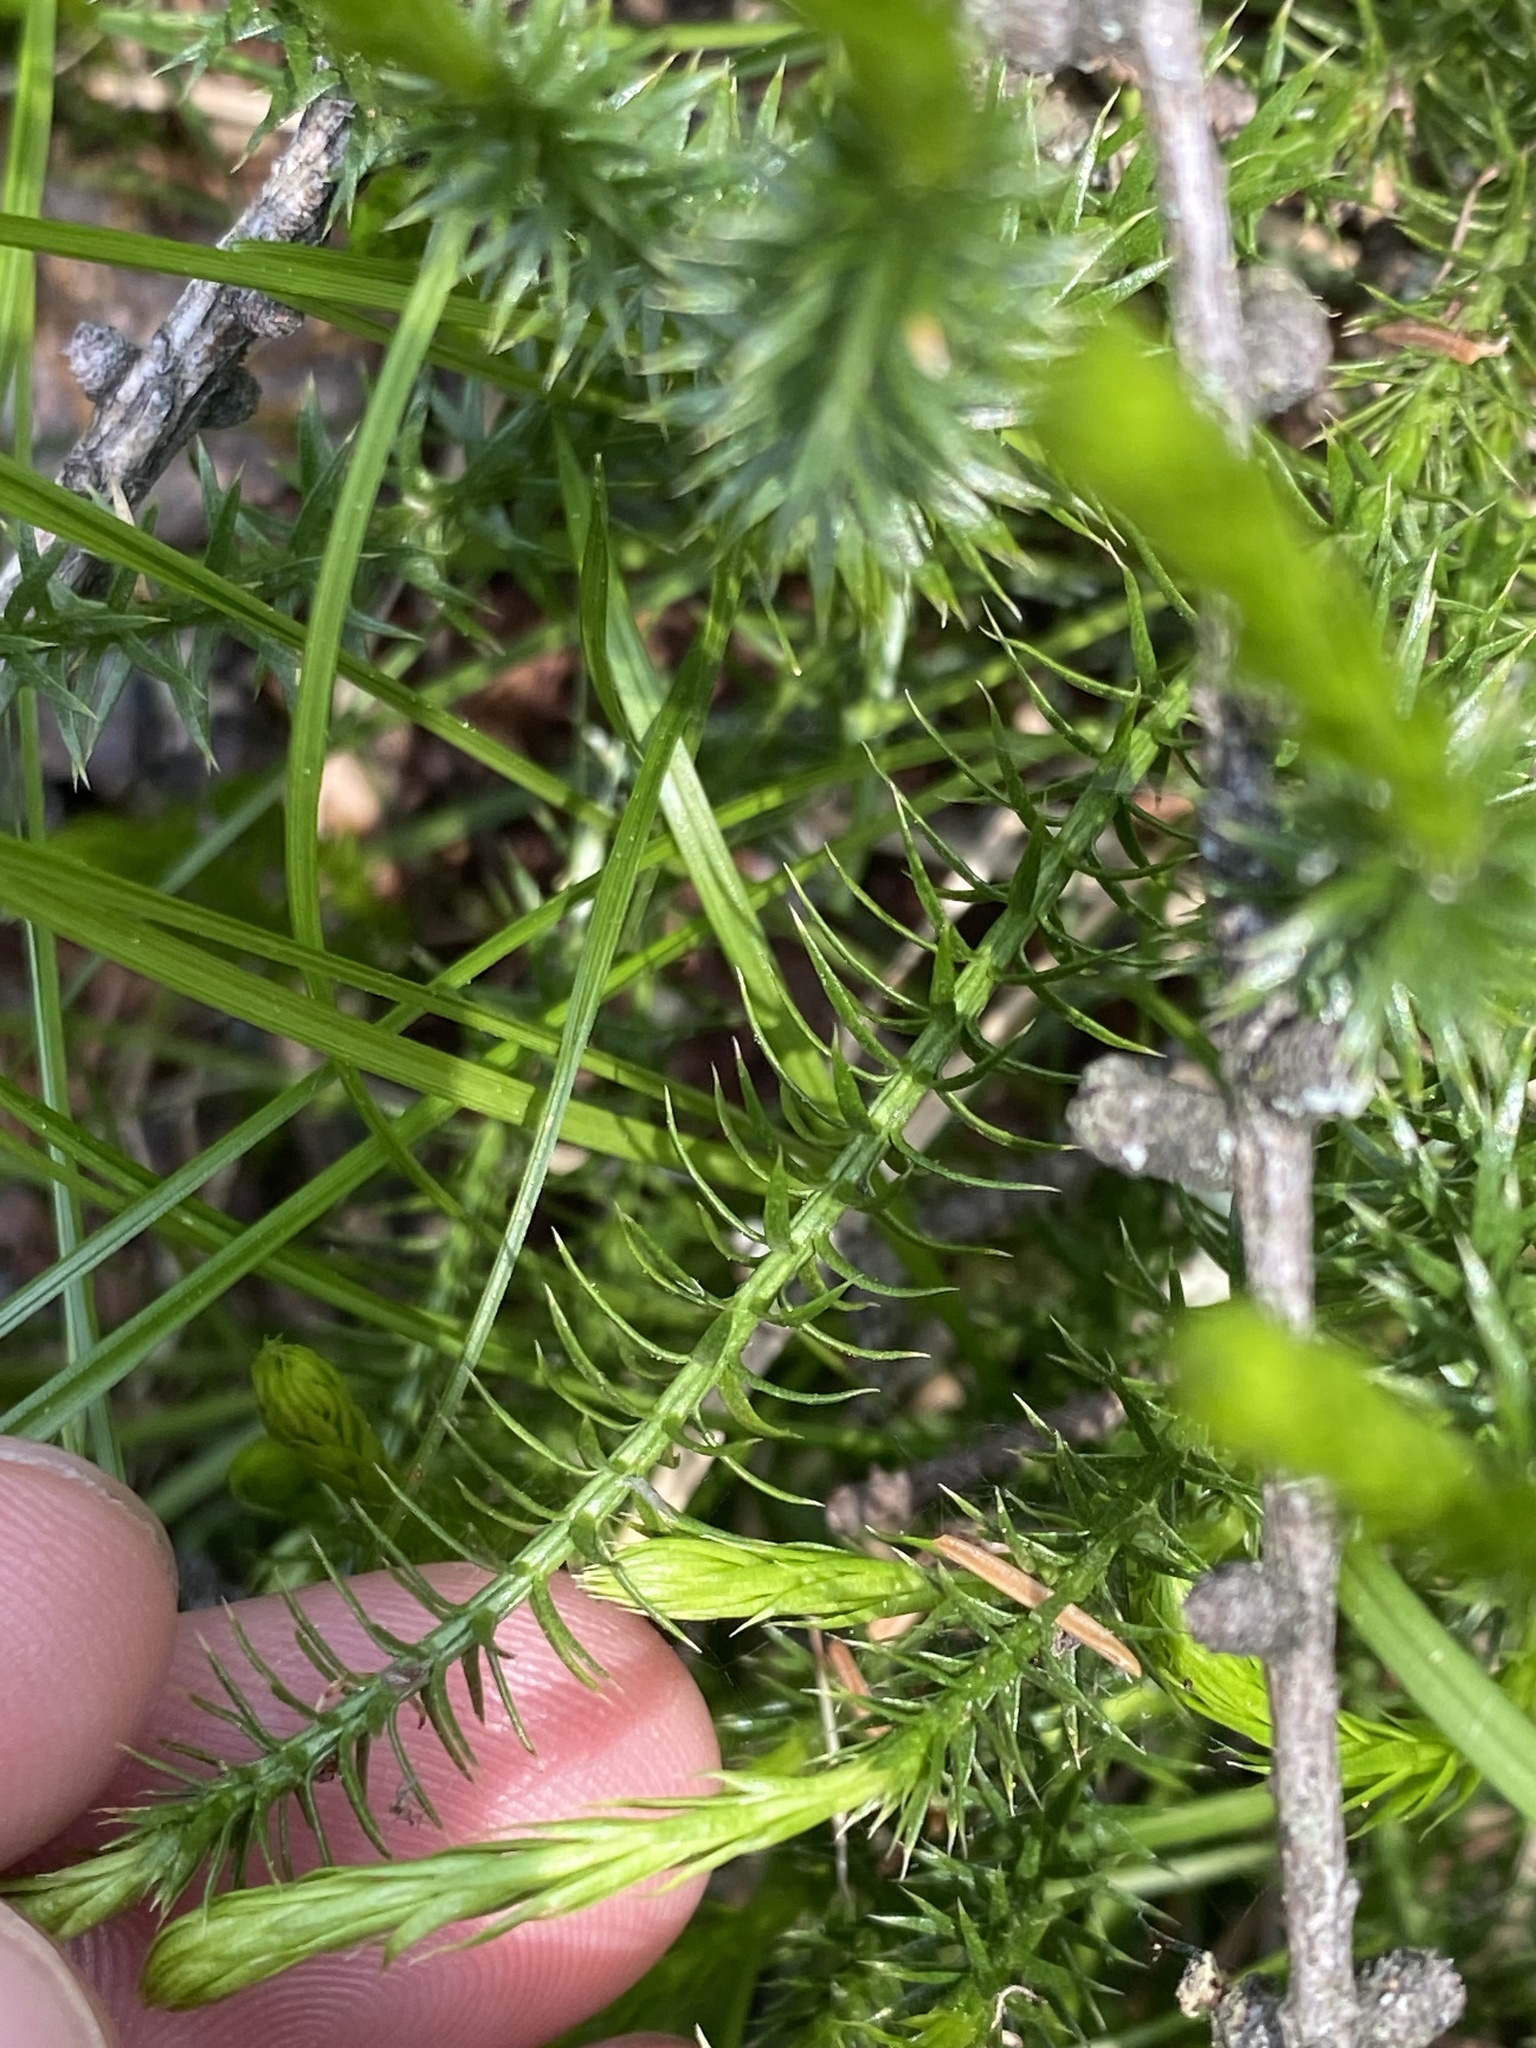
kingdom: Plantae
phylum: Tracheophyta
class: Lycopodiopsida
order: Lycopodiales
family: Lycopodiaceae
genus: Spinulum
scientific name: Spinulum annotinum
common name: Interrupted club-moss
